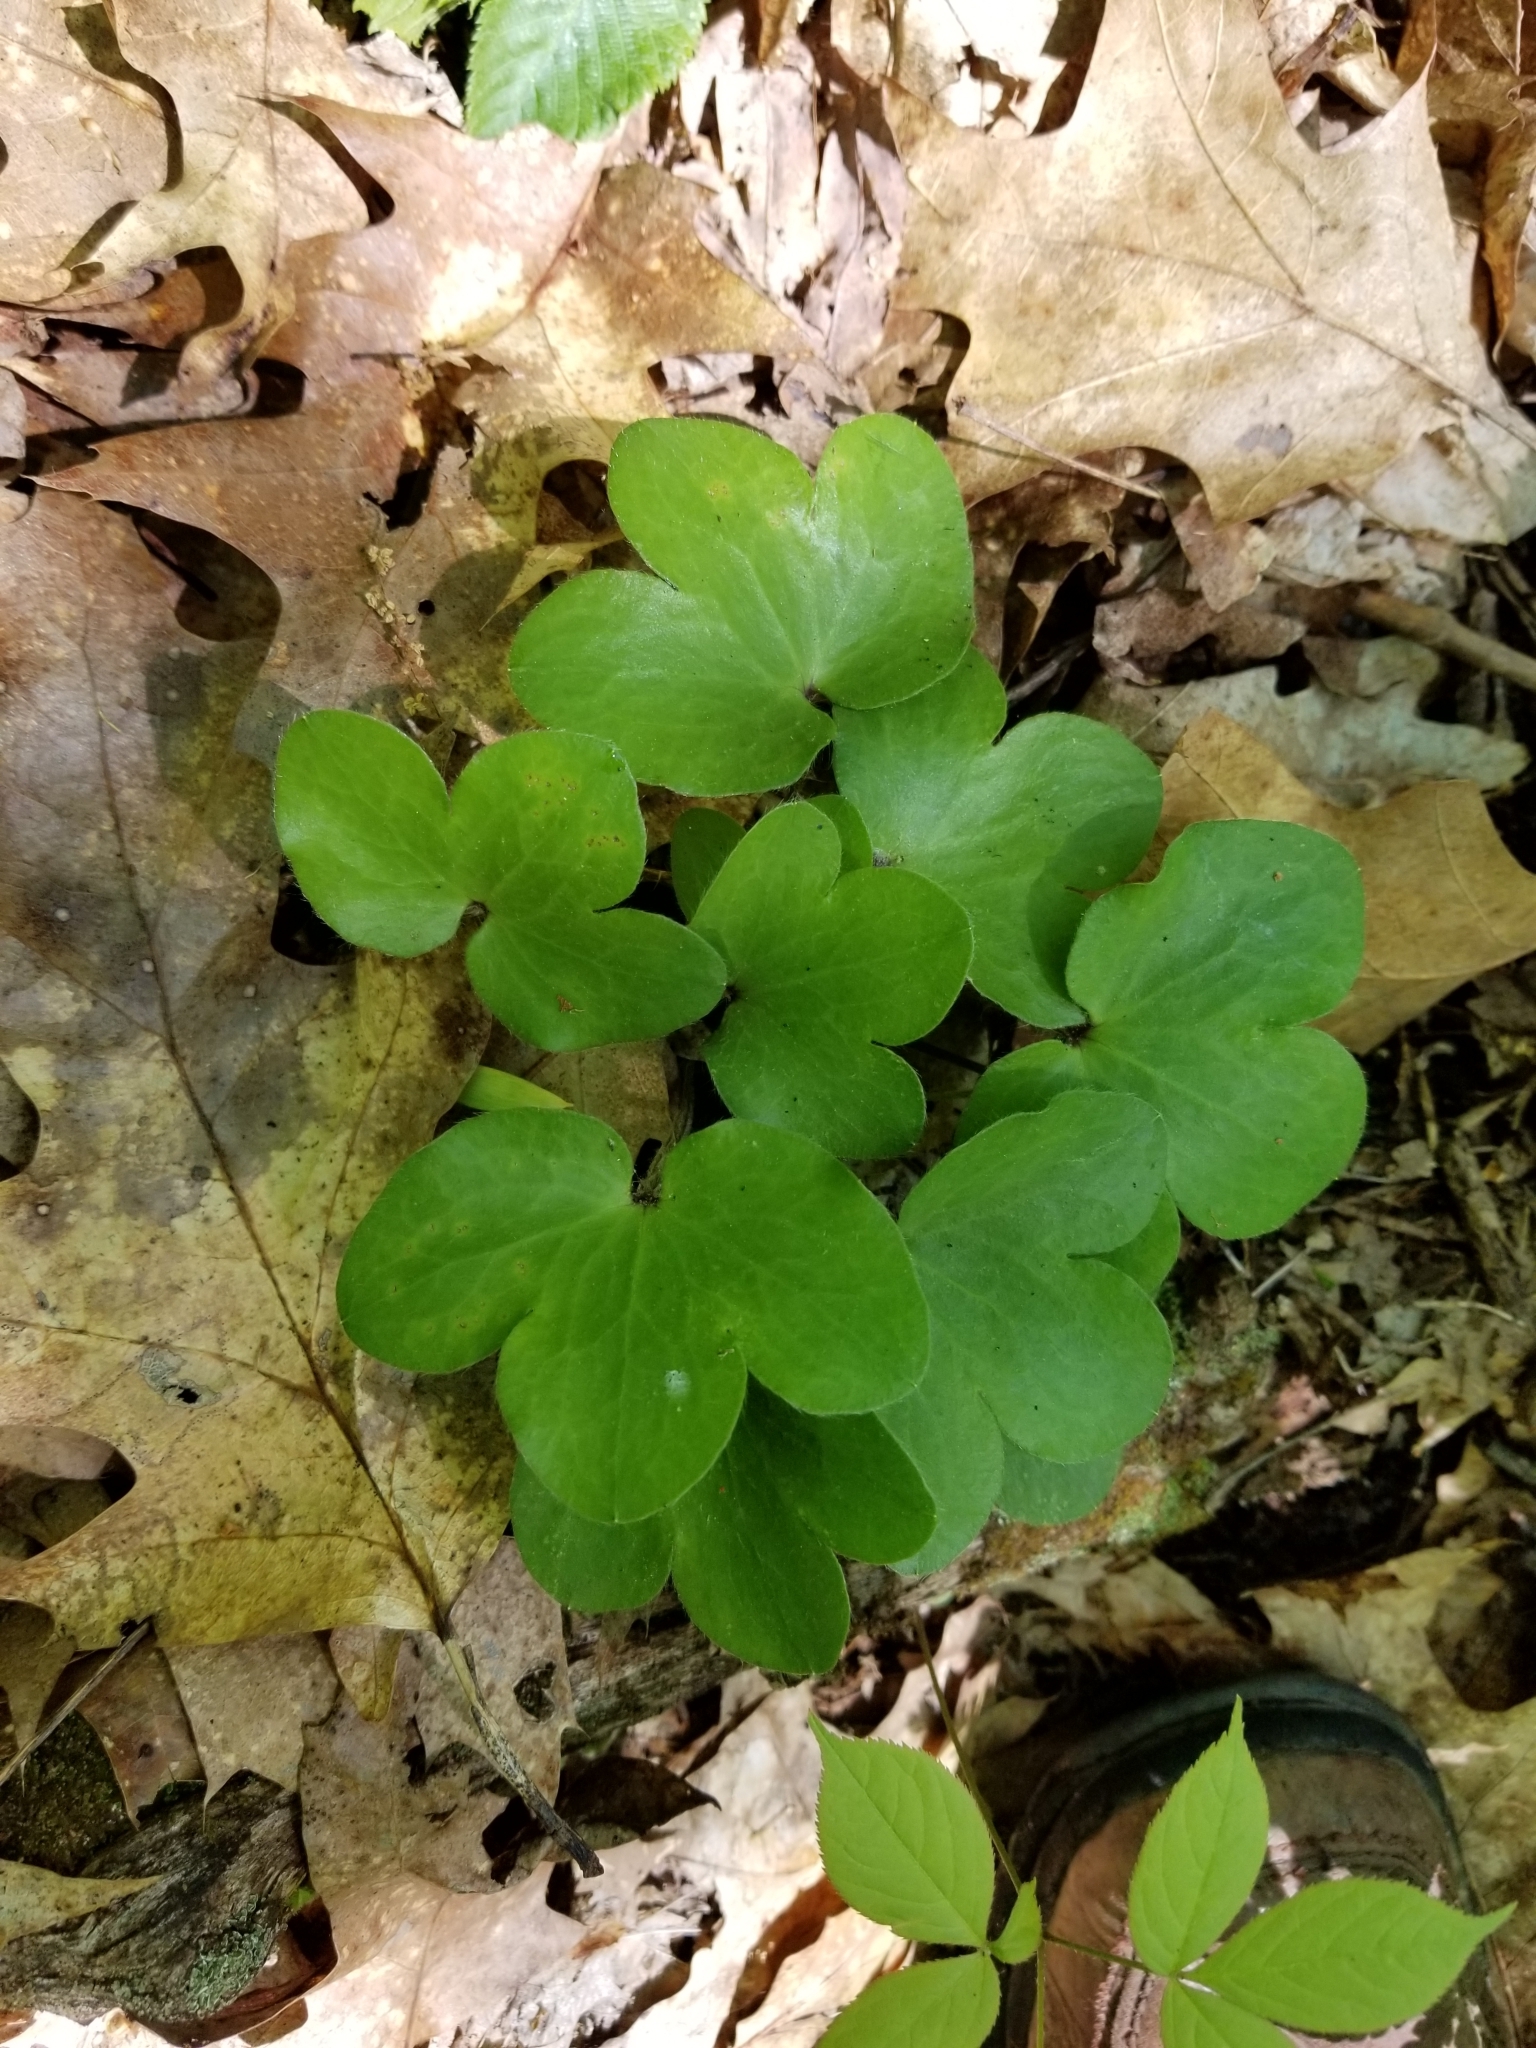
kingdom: Plantae
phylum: Tracheophyta
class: Magnoliopsida
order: Ranunculales
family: Ranunculaceae
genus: Hepatica
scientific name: Hepatica americana
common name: American hepatica
